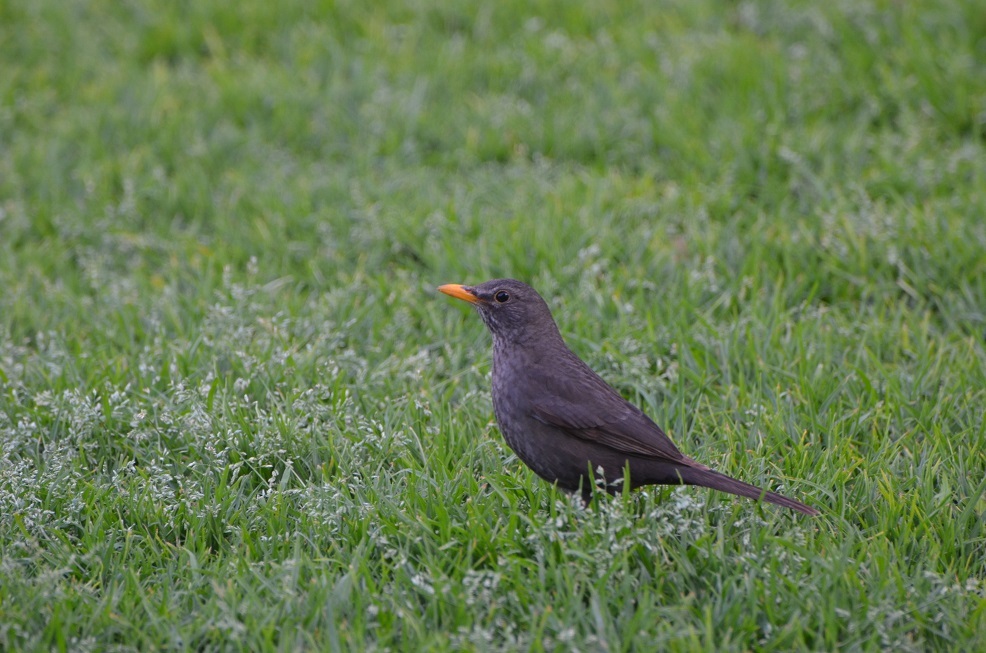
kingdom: Animalia
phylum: Chordata
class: Aves
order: Passeriformes
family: Turdidae
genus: Turdus
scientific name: Turdus merula
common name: Common blackbird
